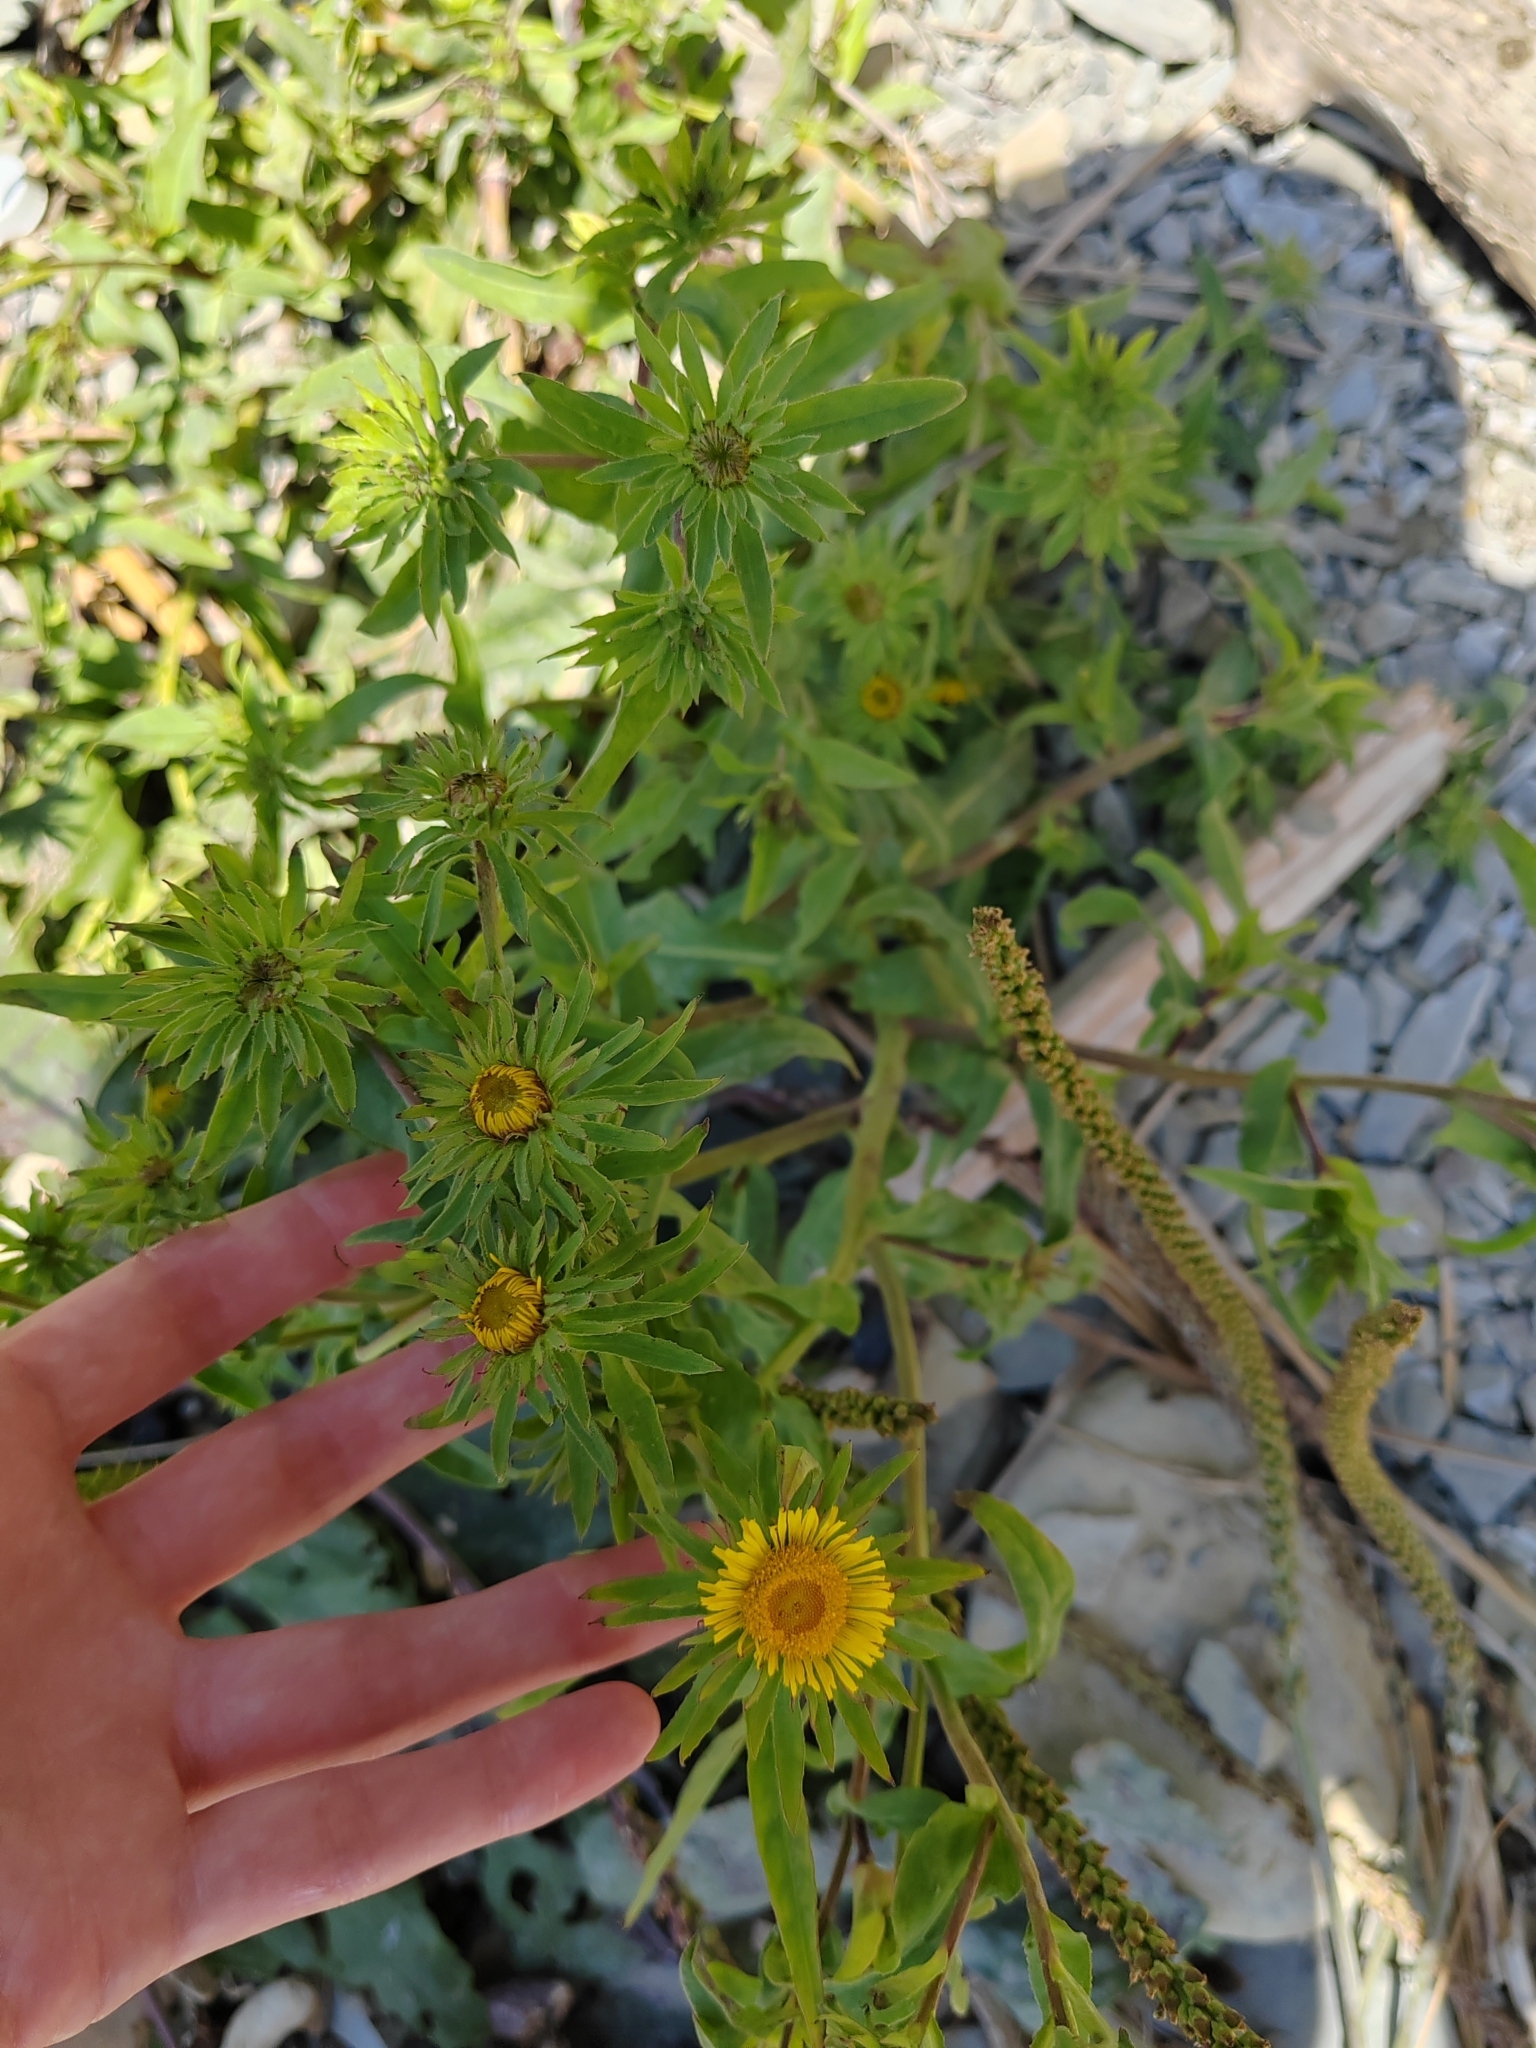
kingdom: Plantae
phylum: Tracheophyta
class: Magnoliopsida
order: Asterales
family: Asteraceae
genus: Pentanema
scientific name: Pentanema caspicum
